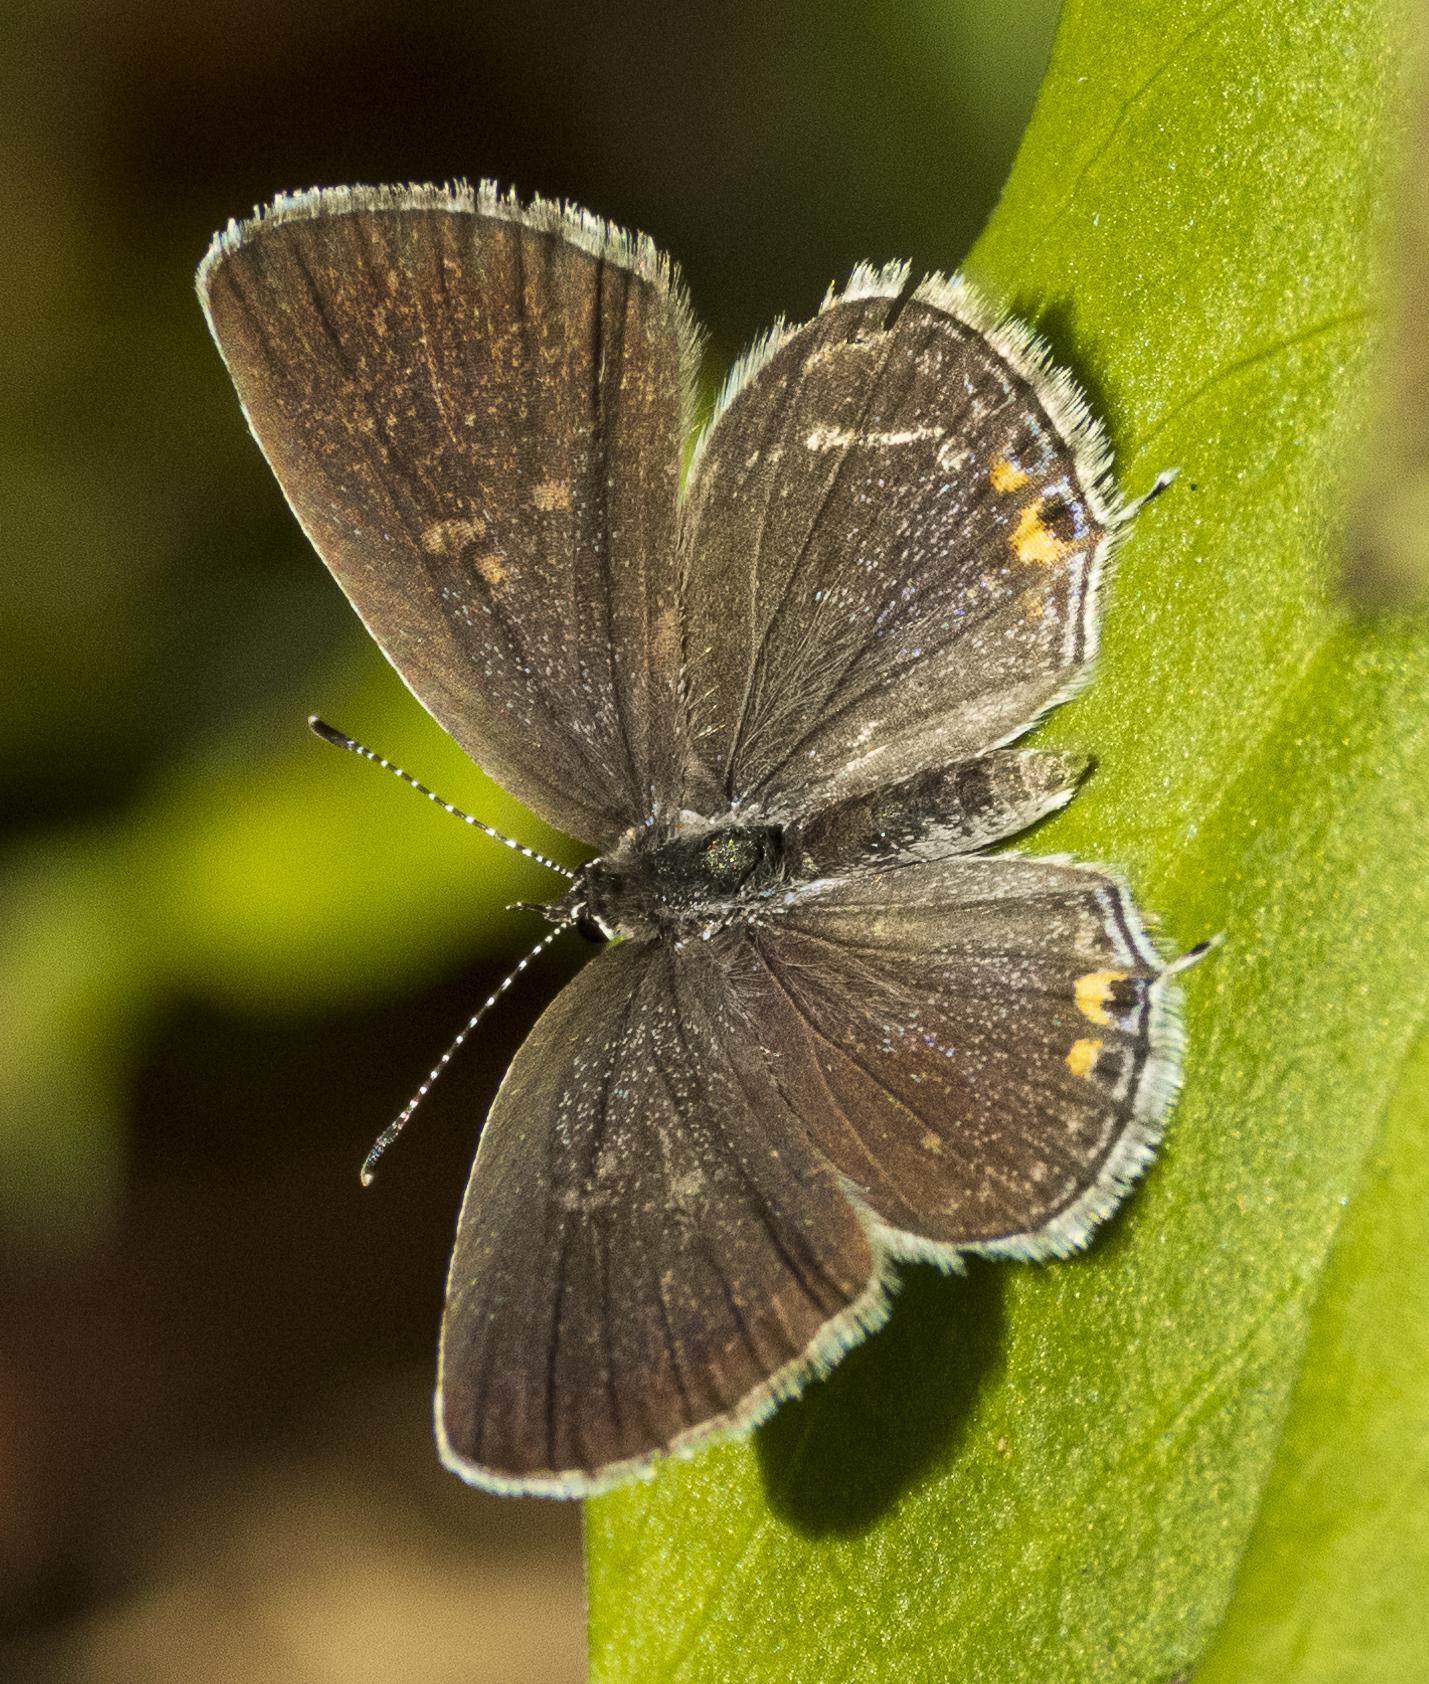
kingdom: Animalia
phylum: Arthropoda
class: Insecta
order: Lepidoptera
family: Lycaenidae
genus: Elkalyce
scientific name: Elkalyce comyntas
